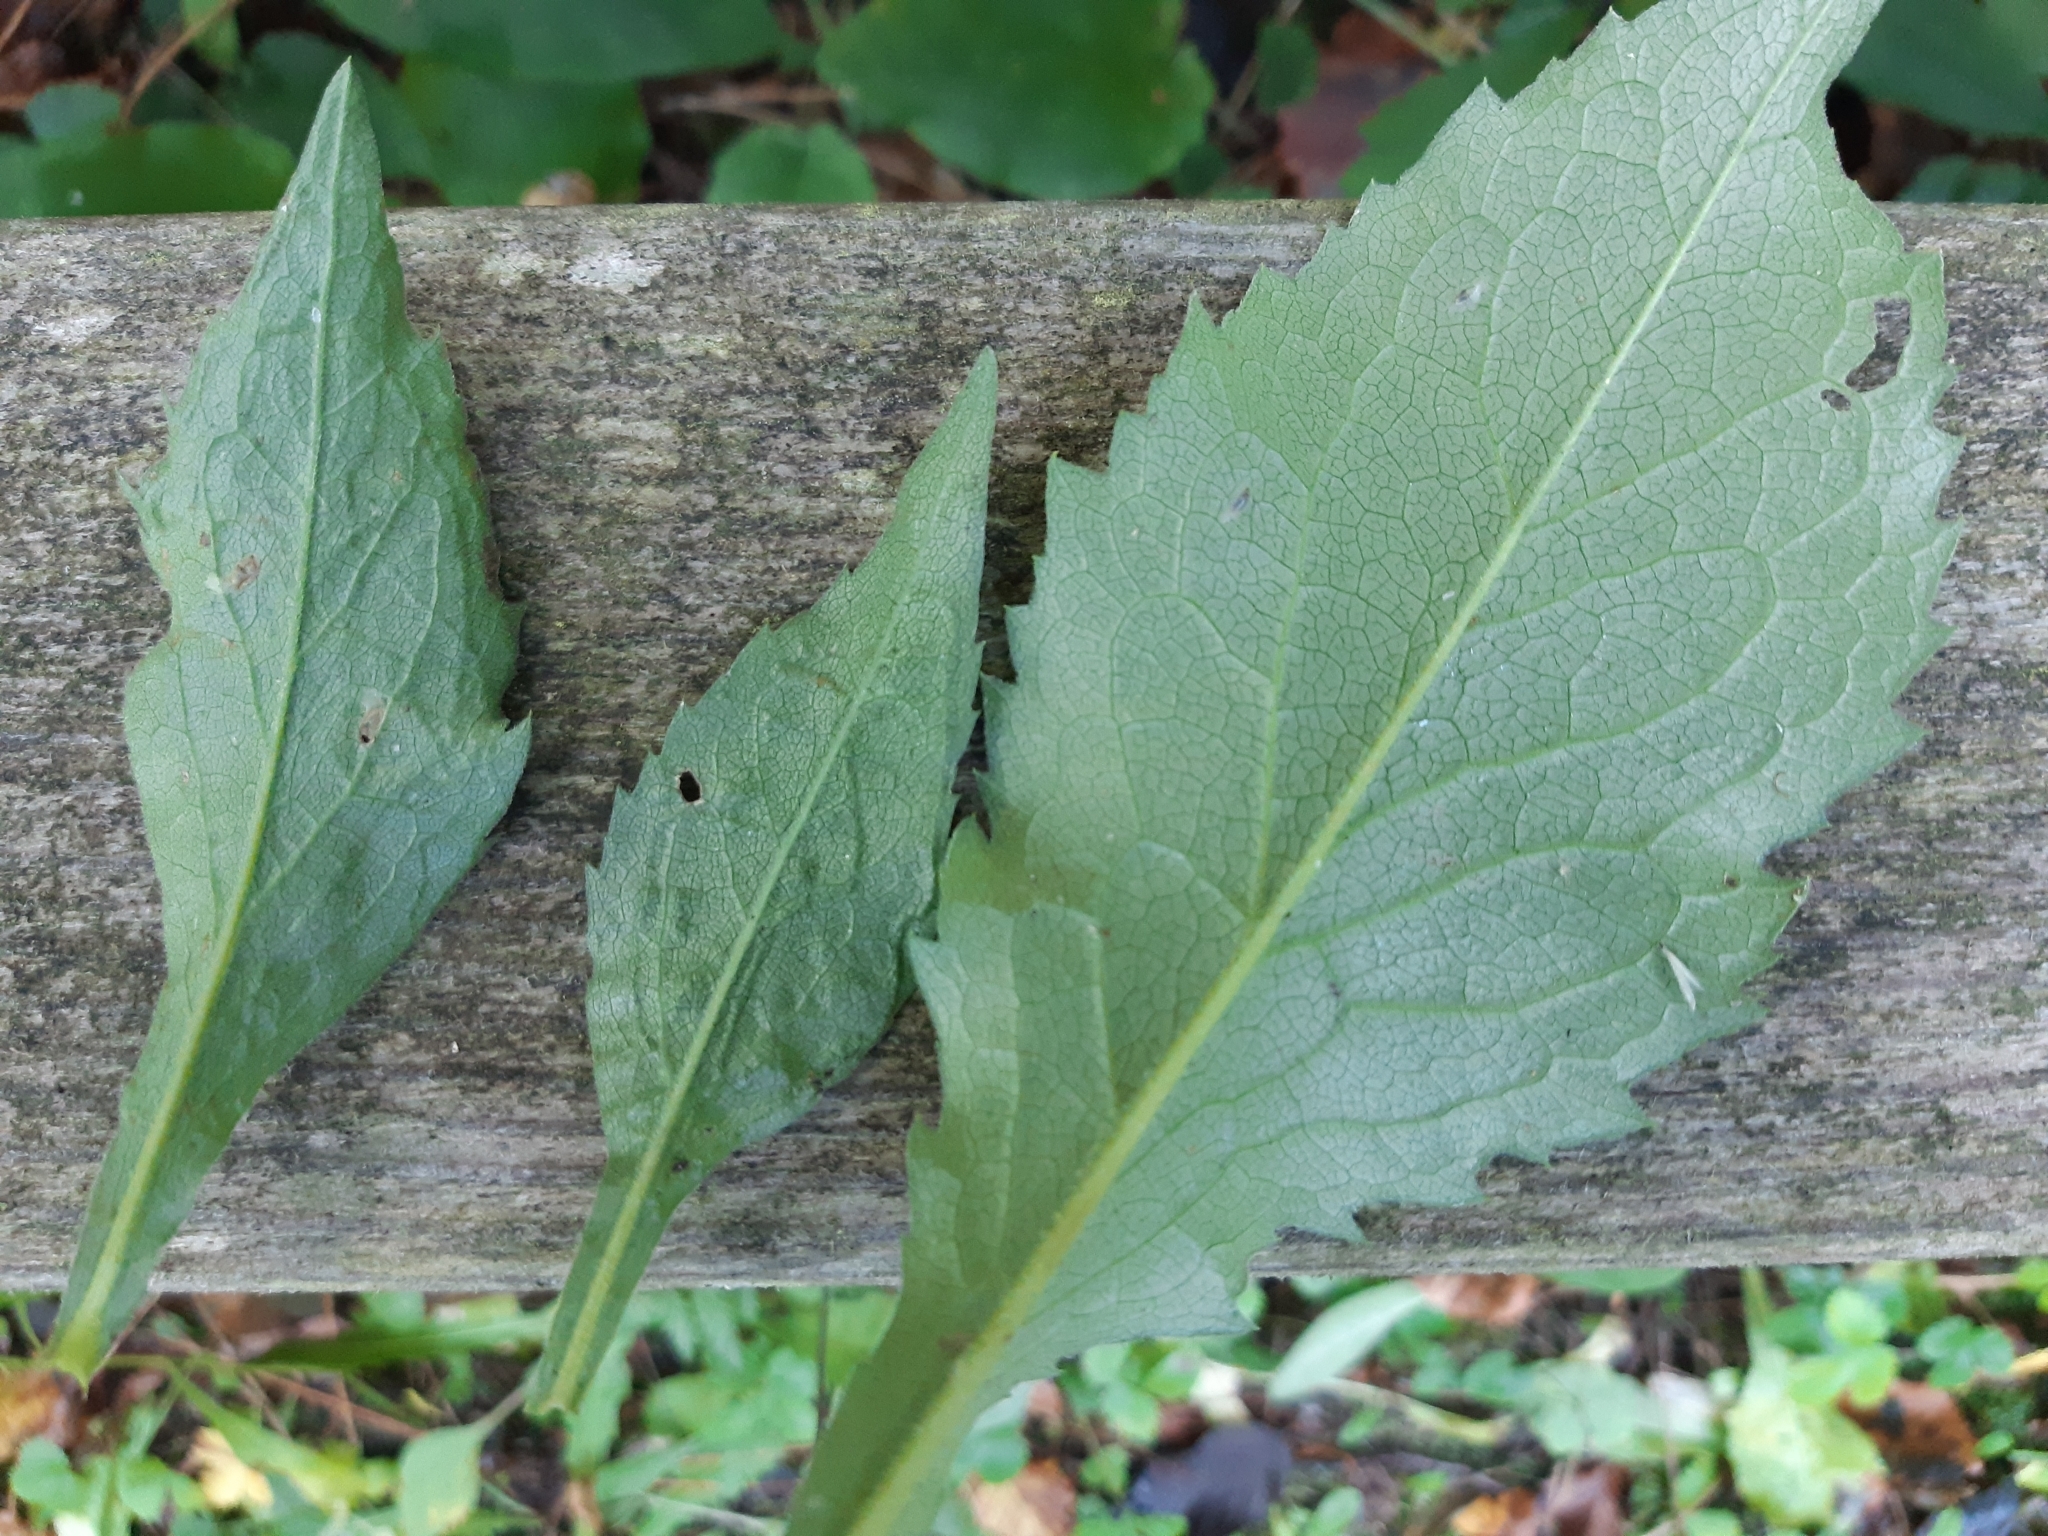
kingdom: Animalia
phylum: Arthropoda
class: Insecta
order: Diptera
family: Agromyzidae
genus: Ophiomyia
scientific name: Ophiomyia maura
